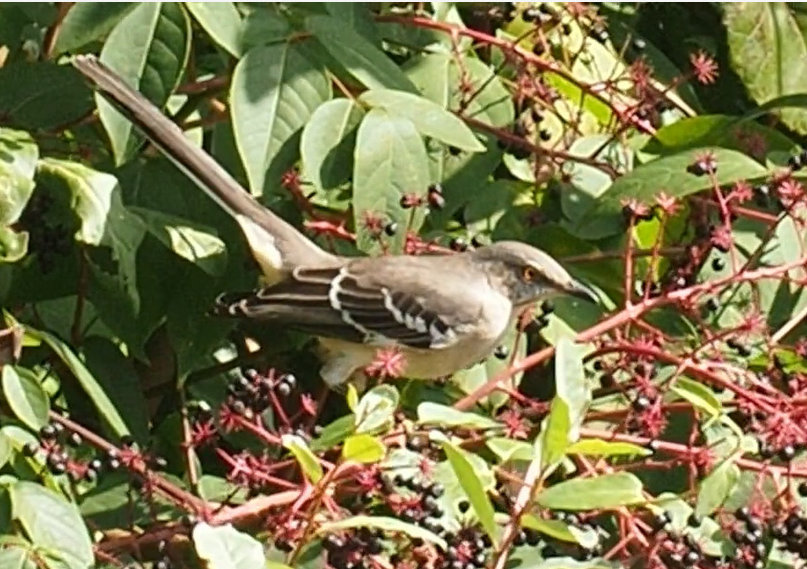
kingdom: Animalia
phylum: Chordata
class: Aves
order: Passeriformes
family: Mimidae
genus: Mimus
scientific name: Mimus polyglottos
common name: Northern mockingbird
